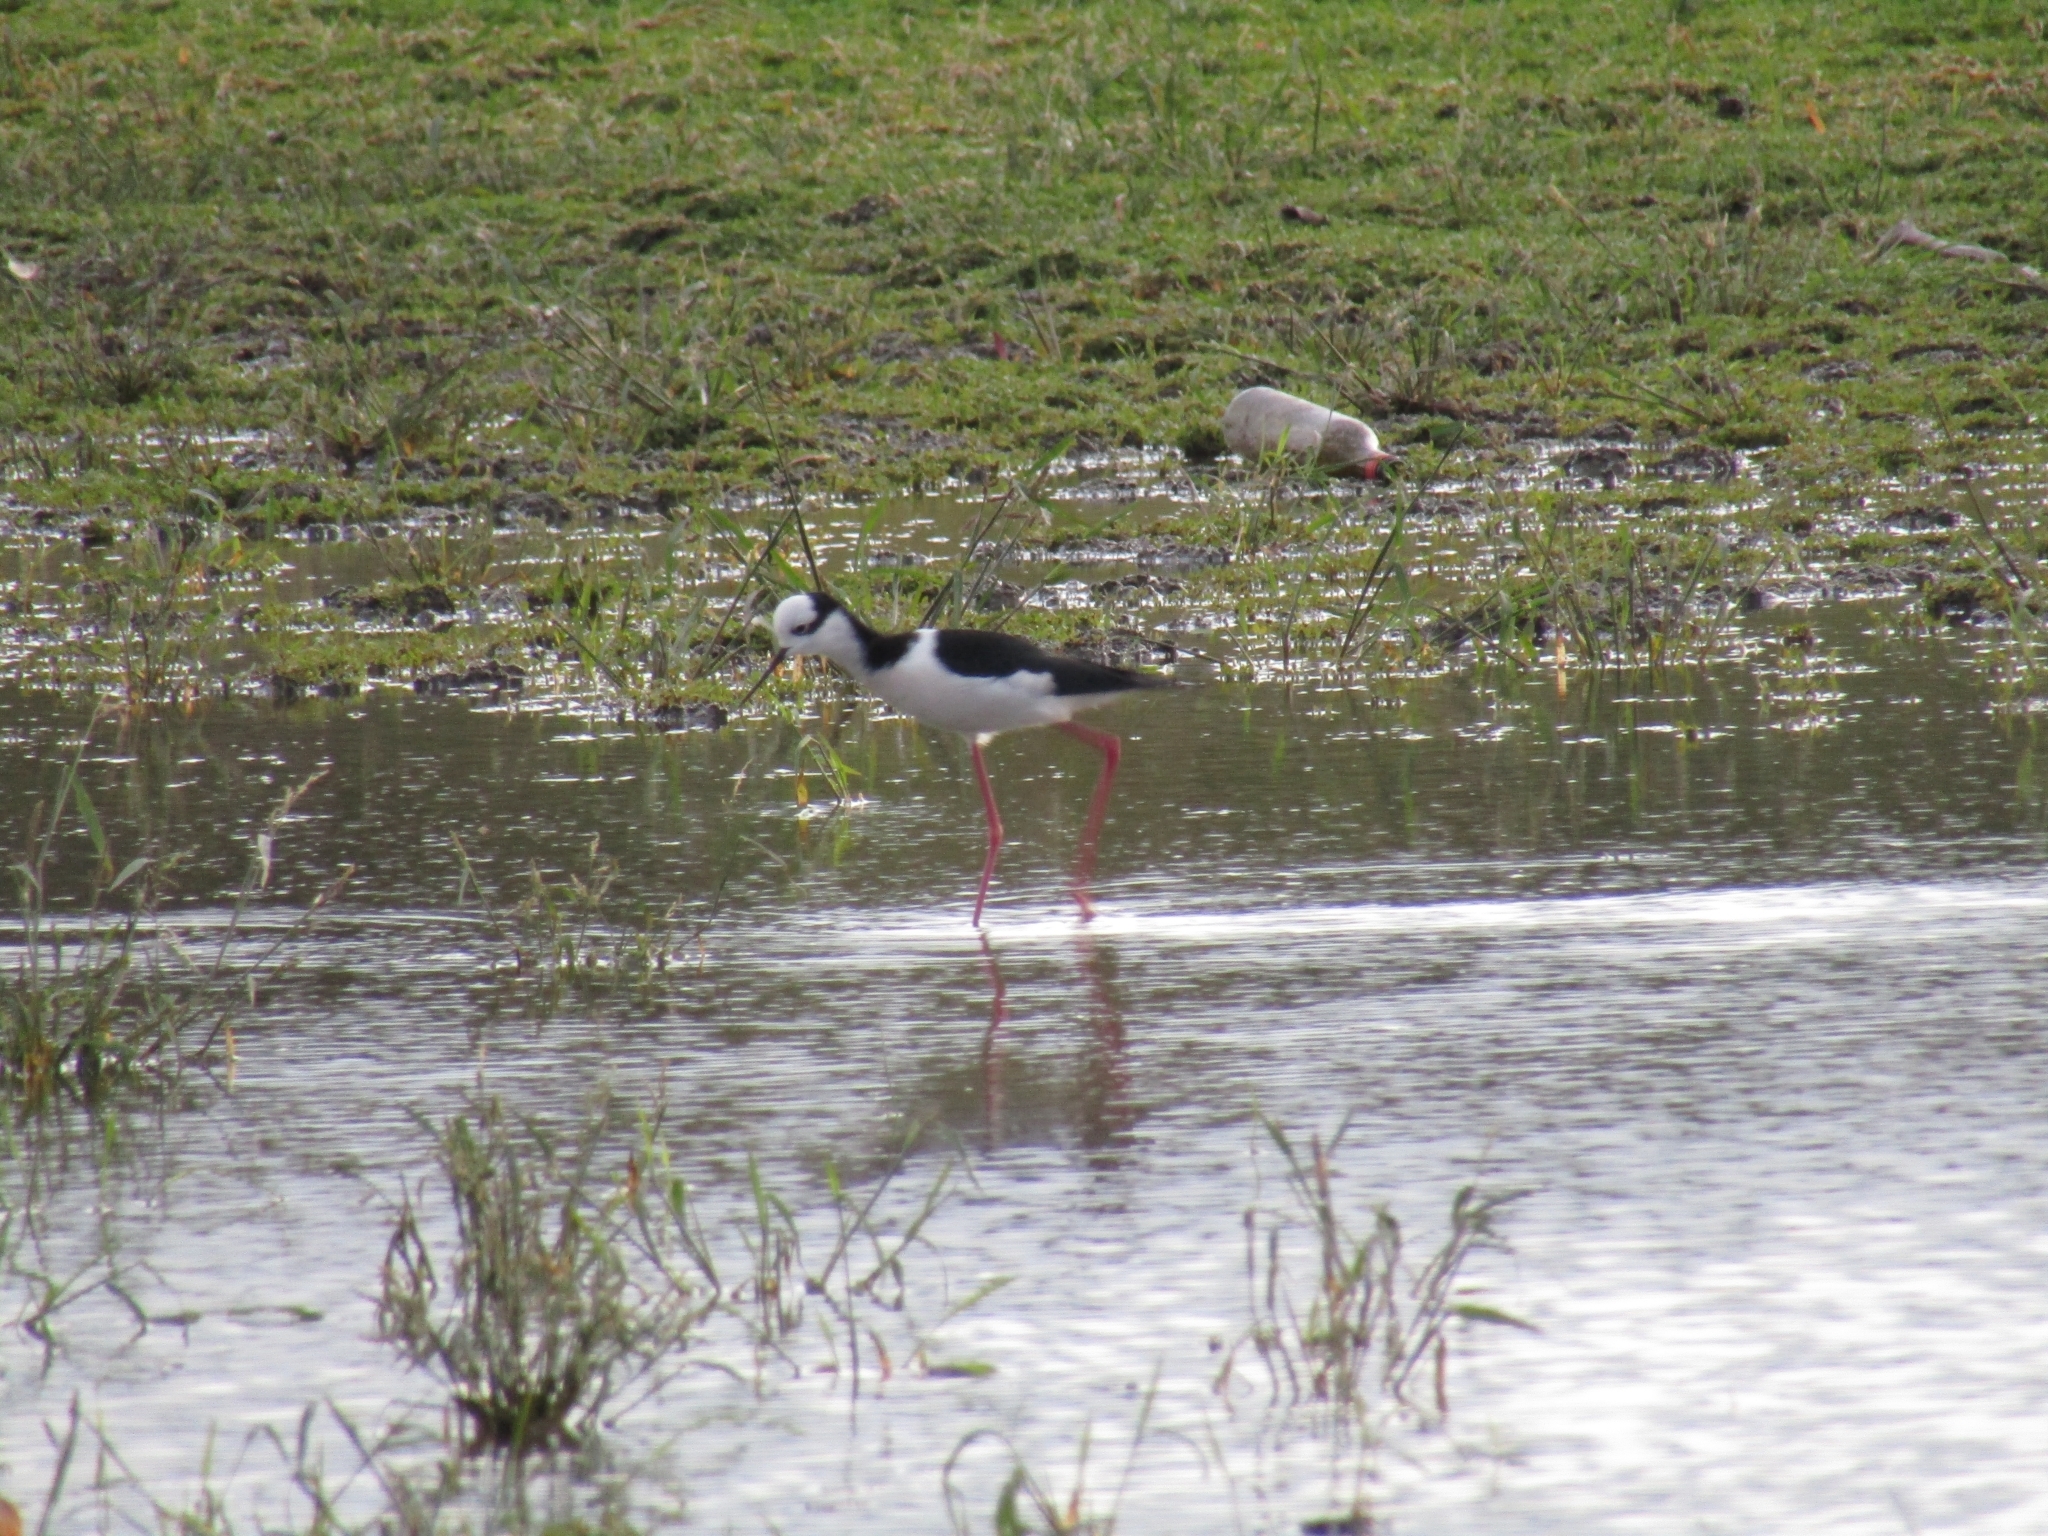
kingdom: Animalia
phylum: Chordata
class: Aves
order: Charadriiformes
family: Recurvirostridae
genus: Himantopus
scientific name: Himantopus mexicanus
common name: Black-necked stilt
